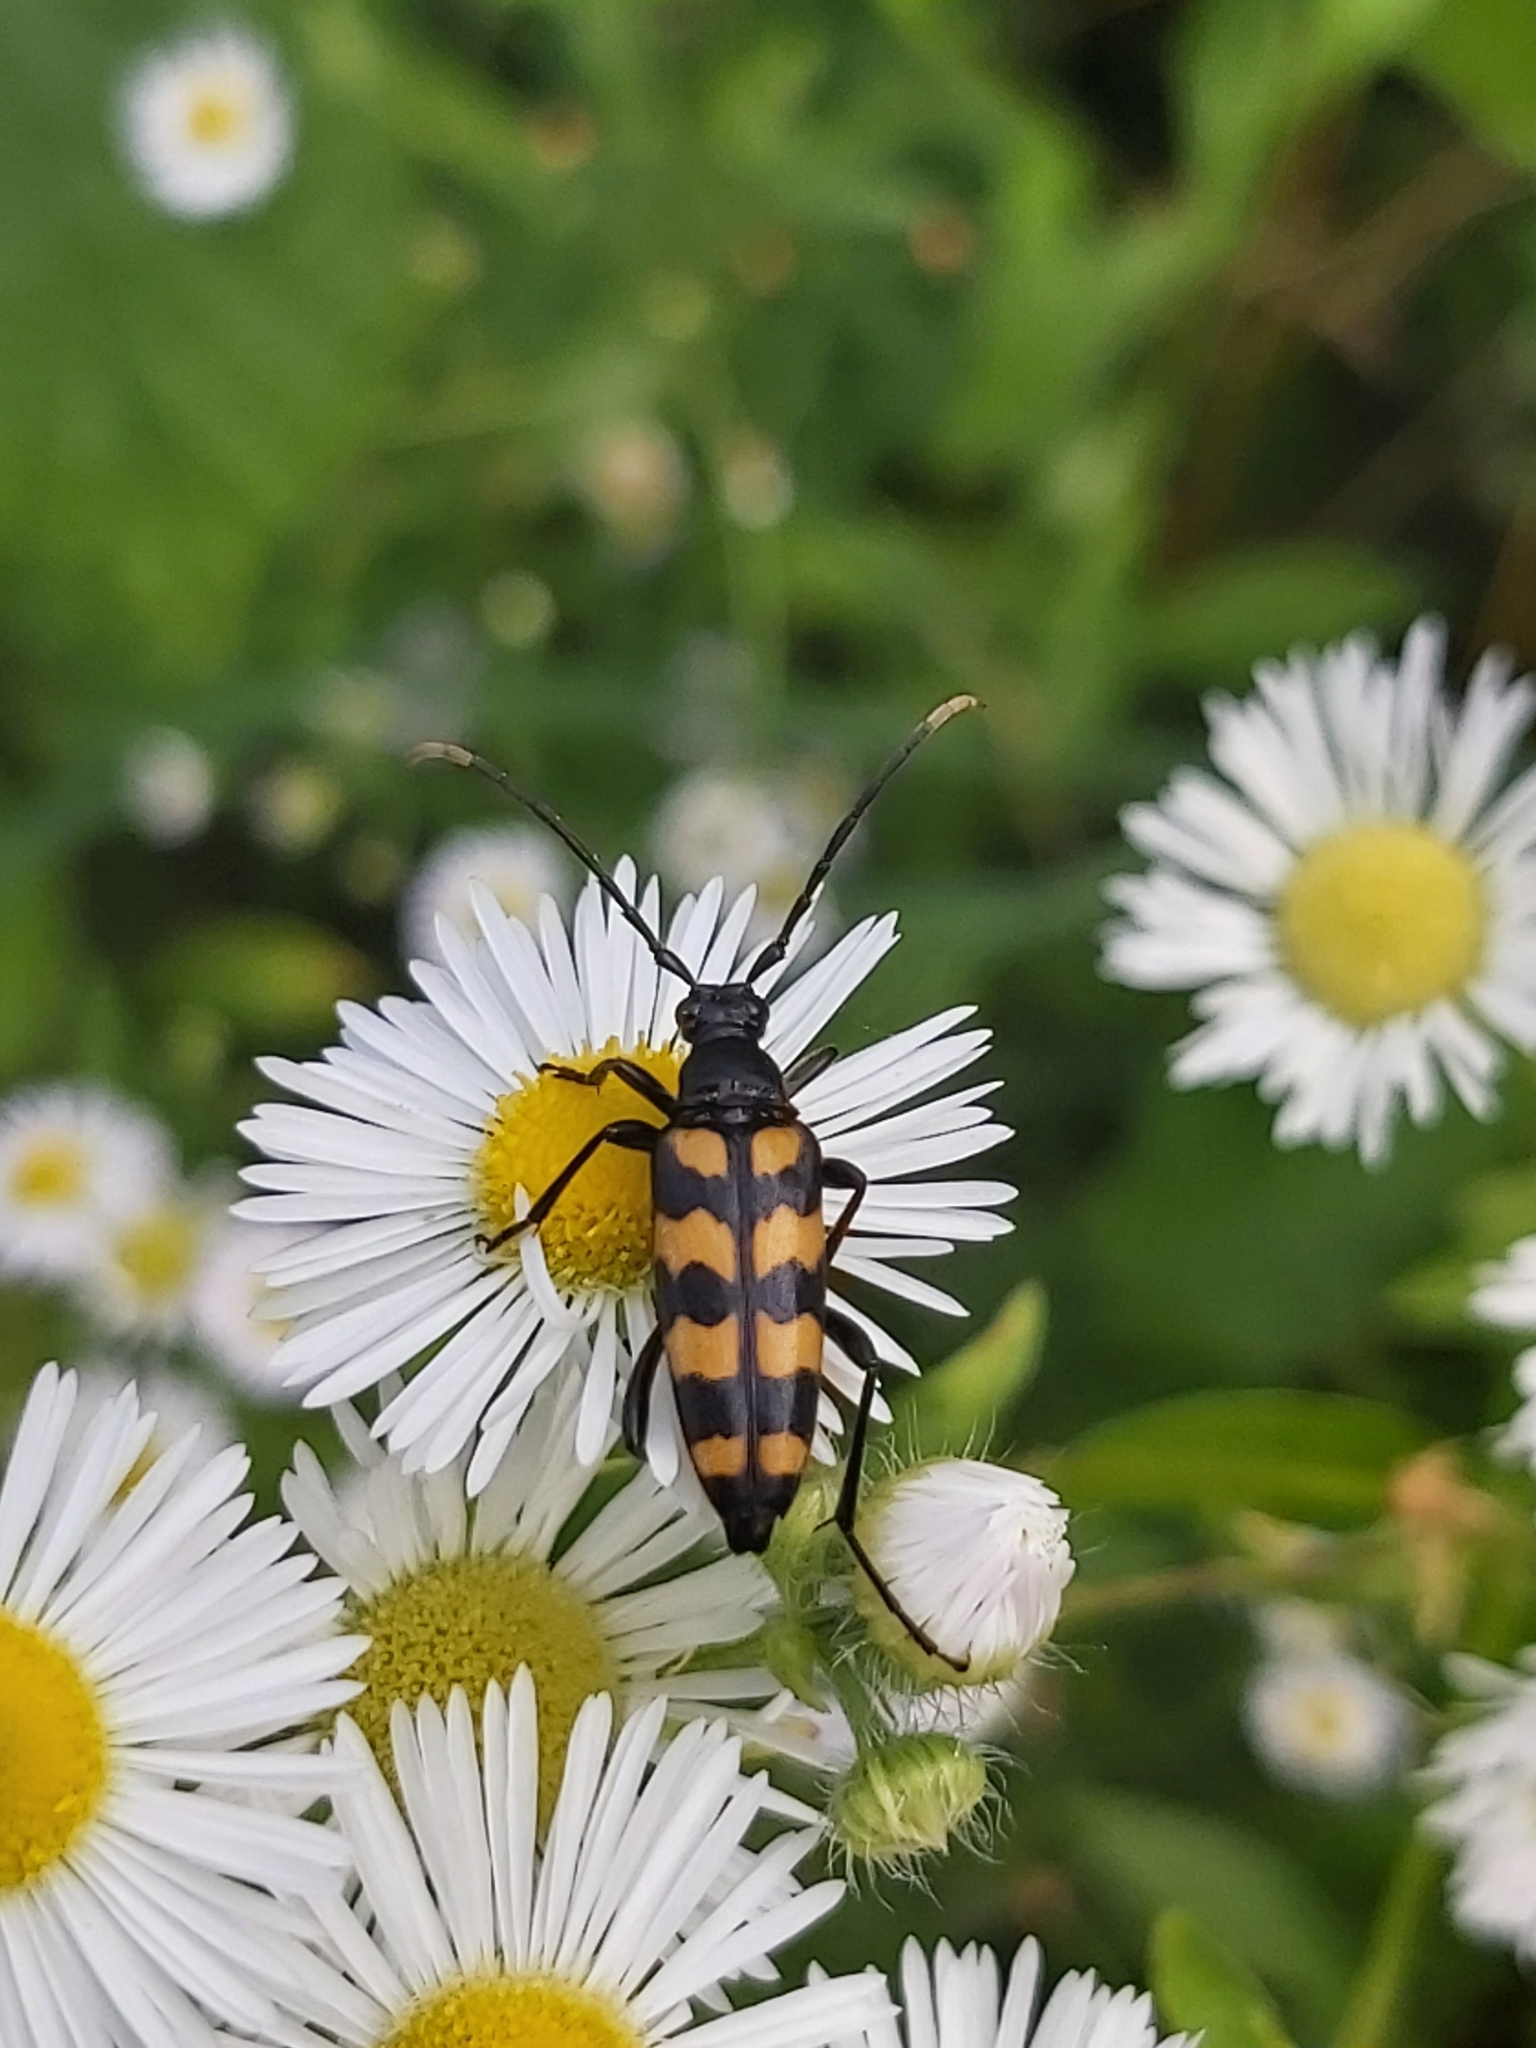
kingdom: Animalia
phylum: Arthropoda
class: Insecta
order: Coleoptera
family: Cerambycidae
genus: Leptura
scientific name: Leptura quadrifasciata
